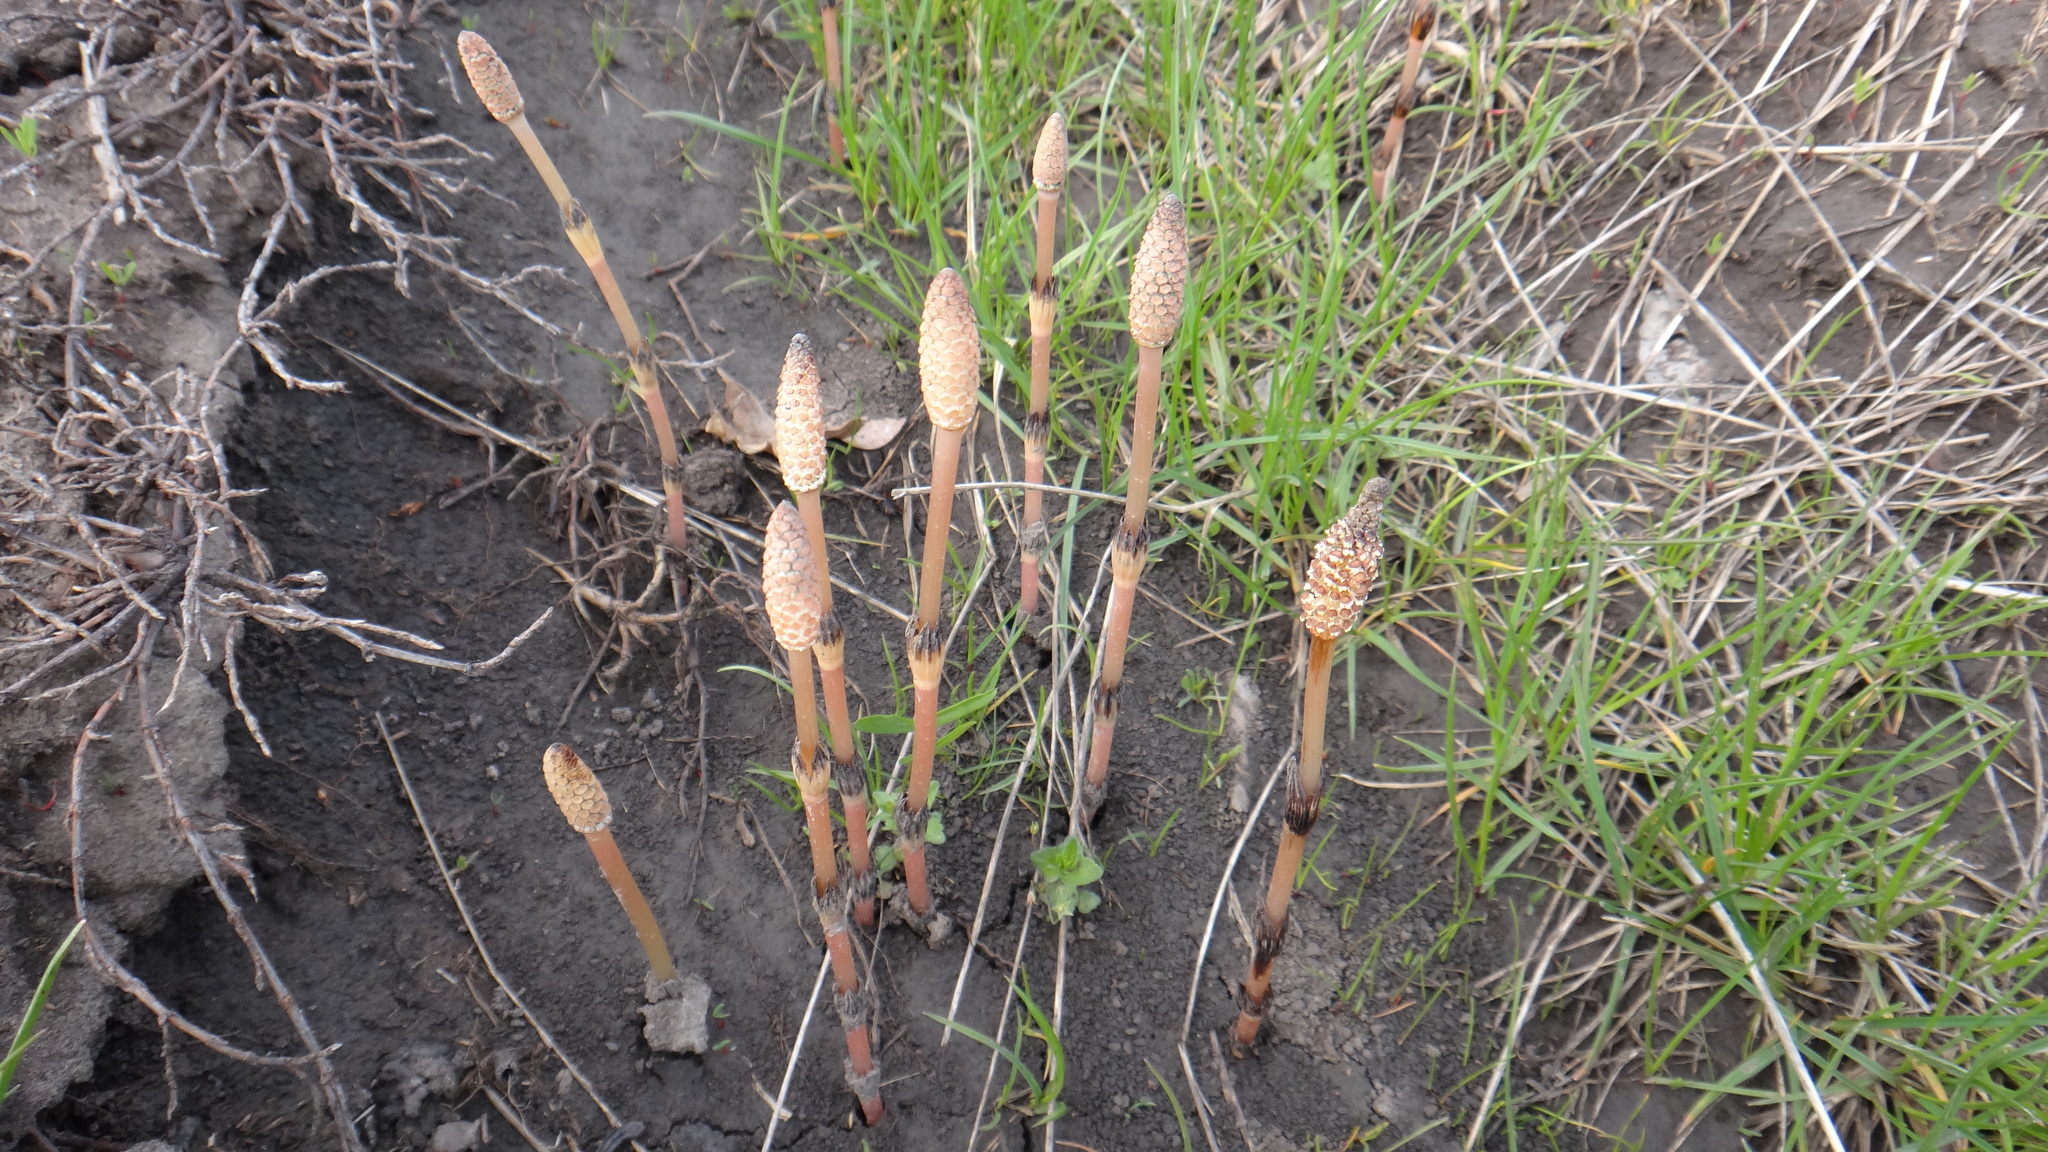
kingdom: Plantae
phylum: Tracheophyta
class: Polypodiopsida
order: Equisetales
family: Equisetaceae
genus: Equisetum
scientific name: Equisetum arvense
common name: Field horsetail
